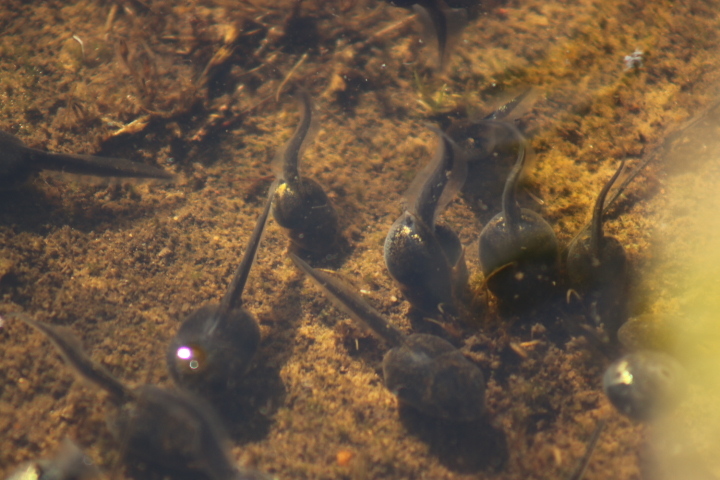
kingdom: Animalia
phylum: Chordata
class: Amphibia
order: Anura
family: Scaphiopodidae
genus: Spea
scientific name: Spea hammondii
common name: Western spadefoot toad
